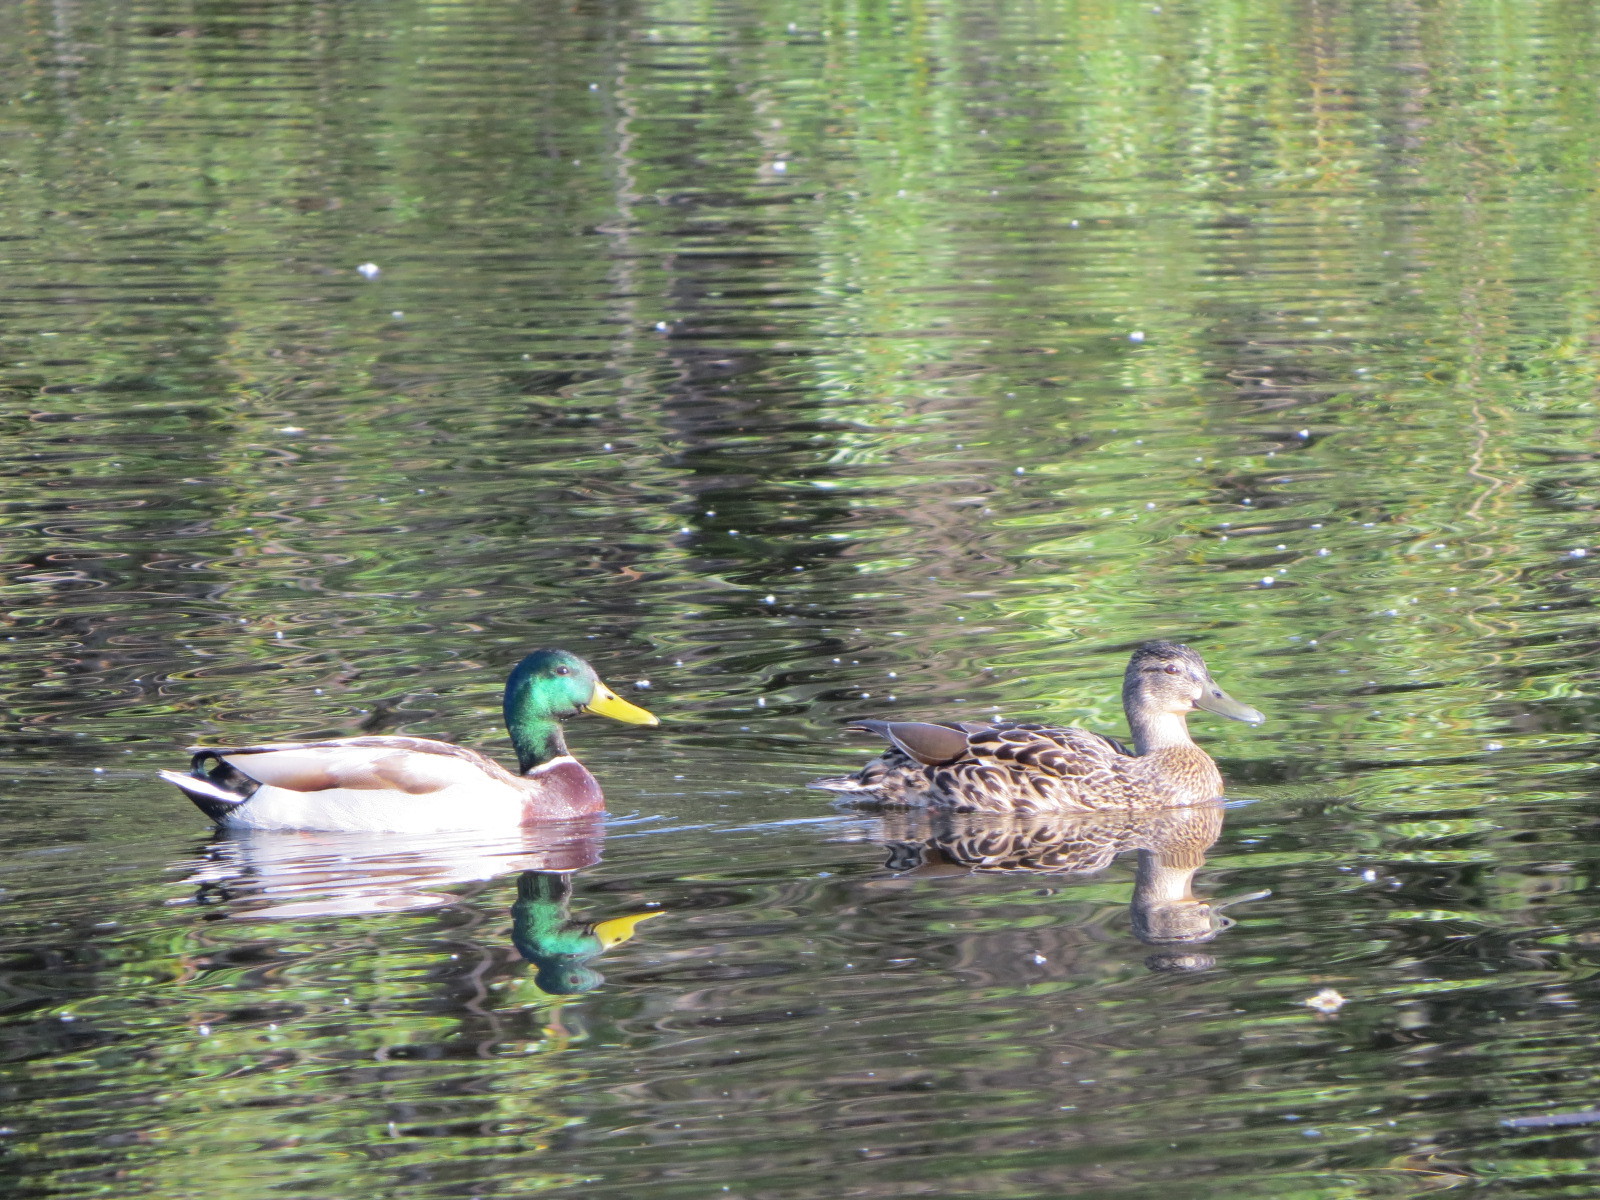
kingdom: Animalia
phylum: Chordata
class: Aves
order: Anseriformes
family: Anatidae
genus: Anas
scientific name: Anas platyrhynchos
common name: Mallard
